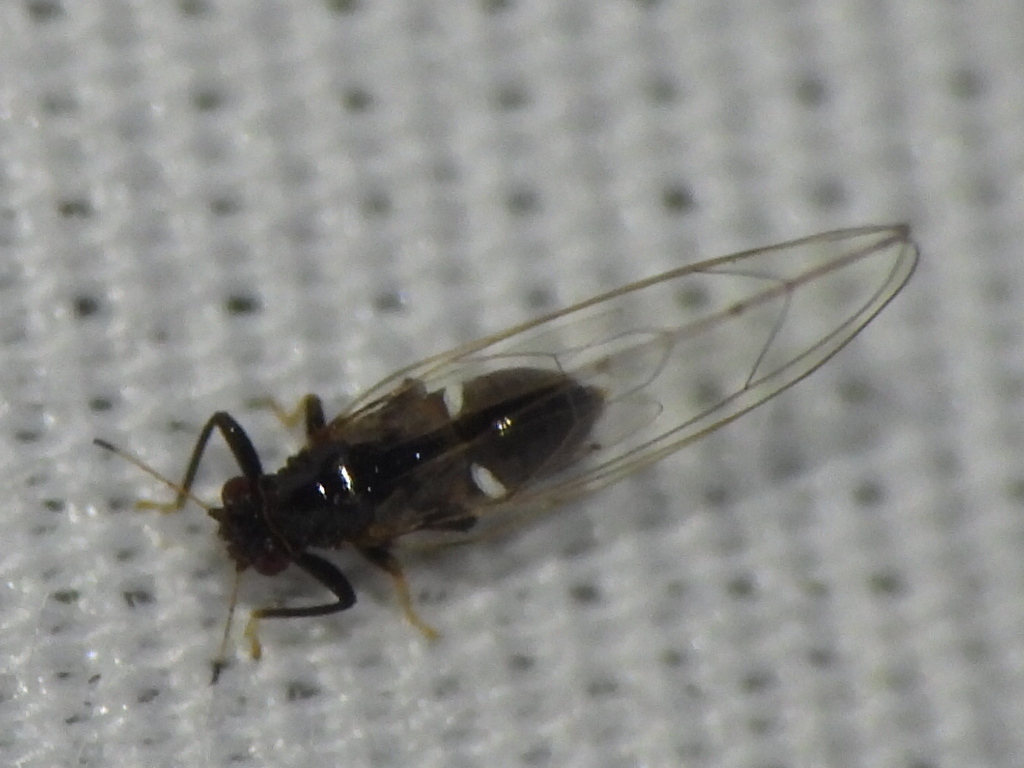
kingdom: Animalia
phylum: Arthropoda
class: Insecta
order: Hemiptera
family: Triozidae
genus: Baeoalitriozus
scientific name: Baeoalitriozus diospyri
